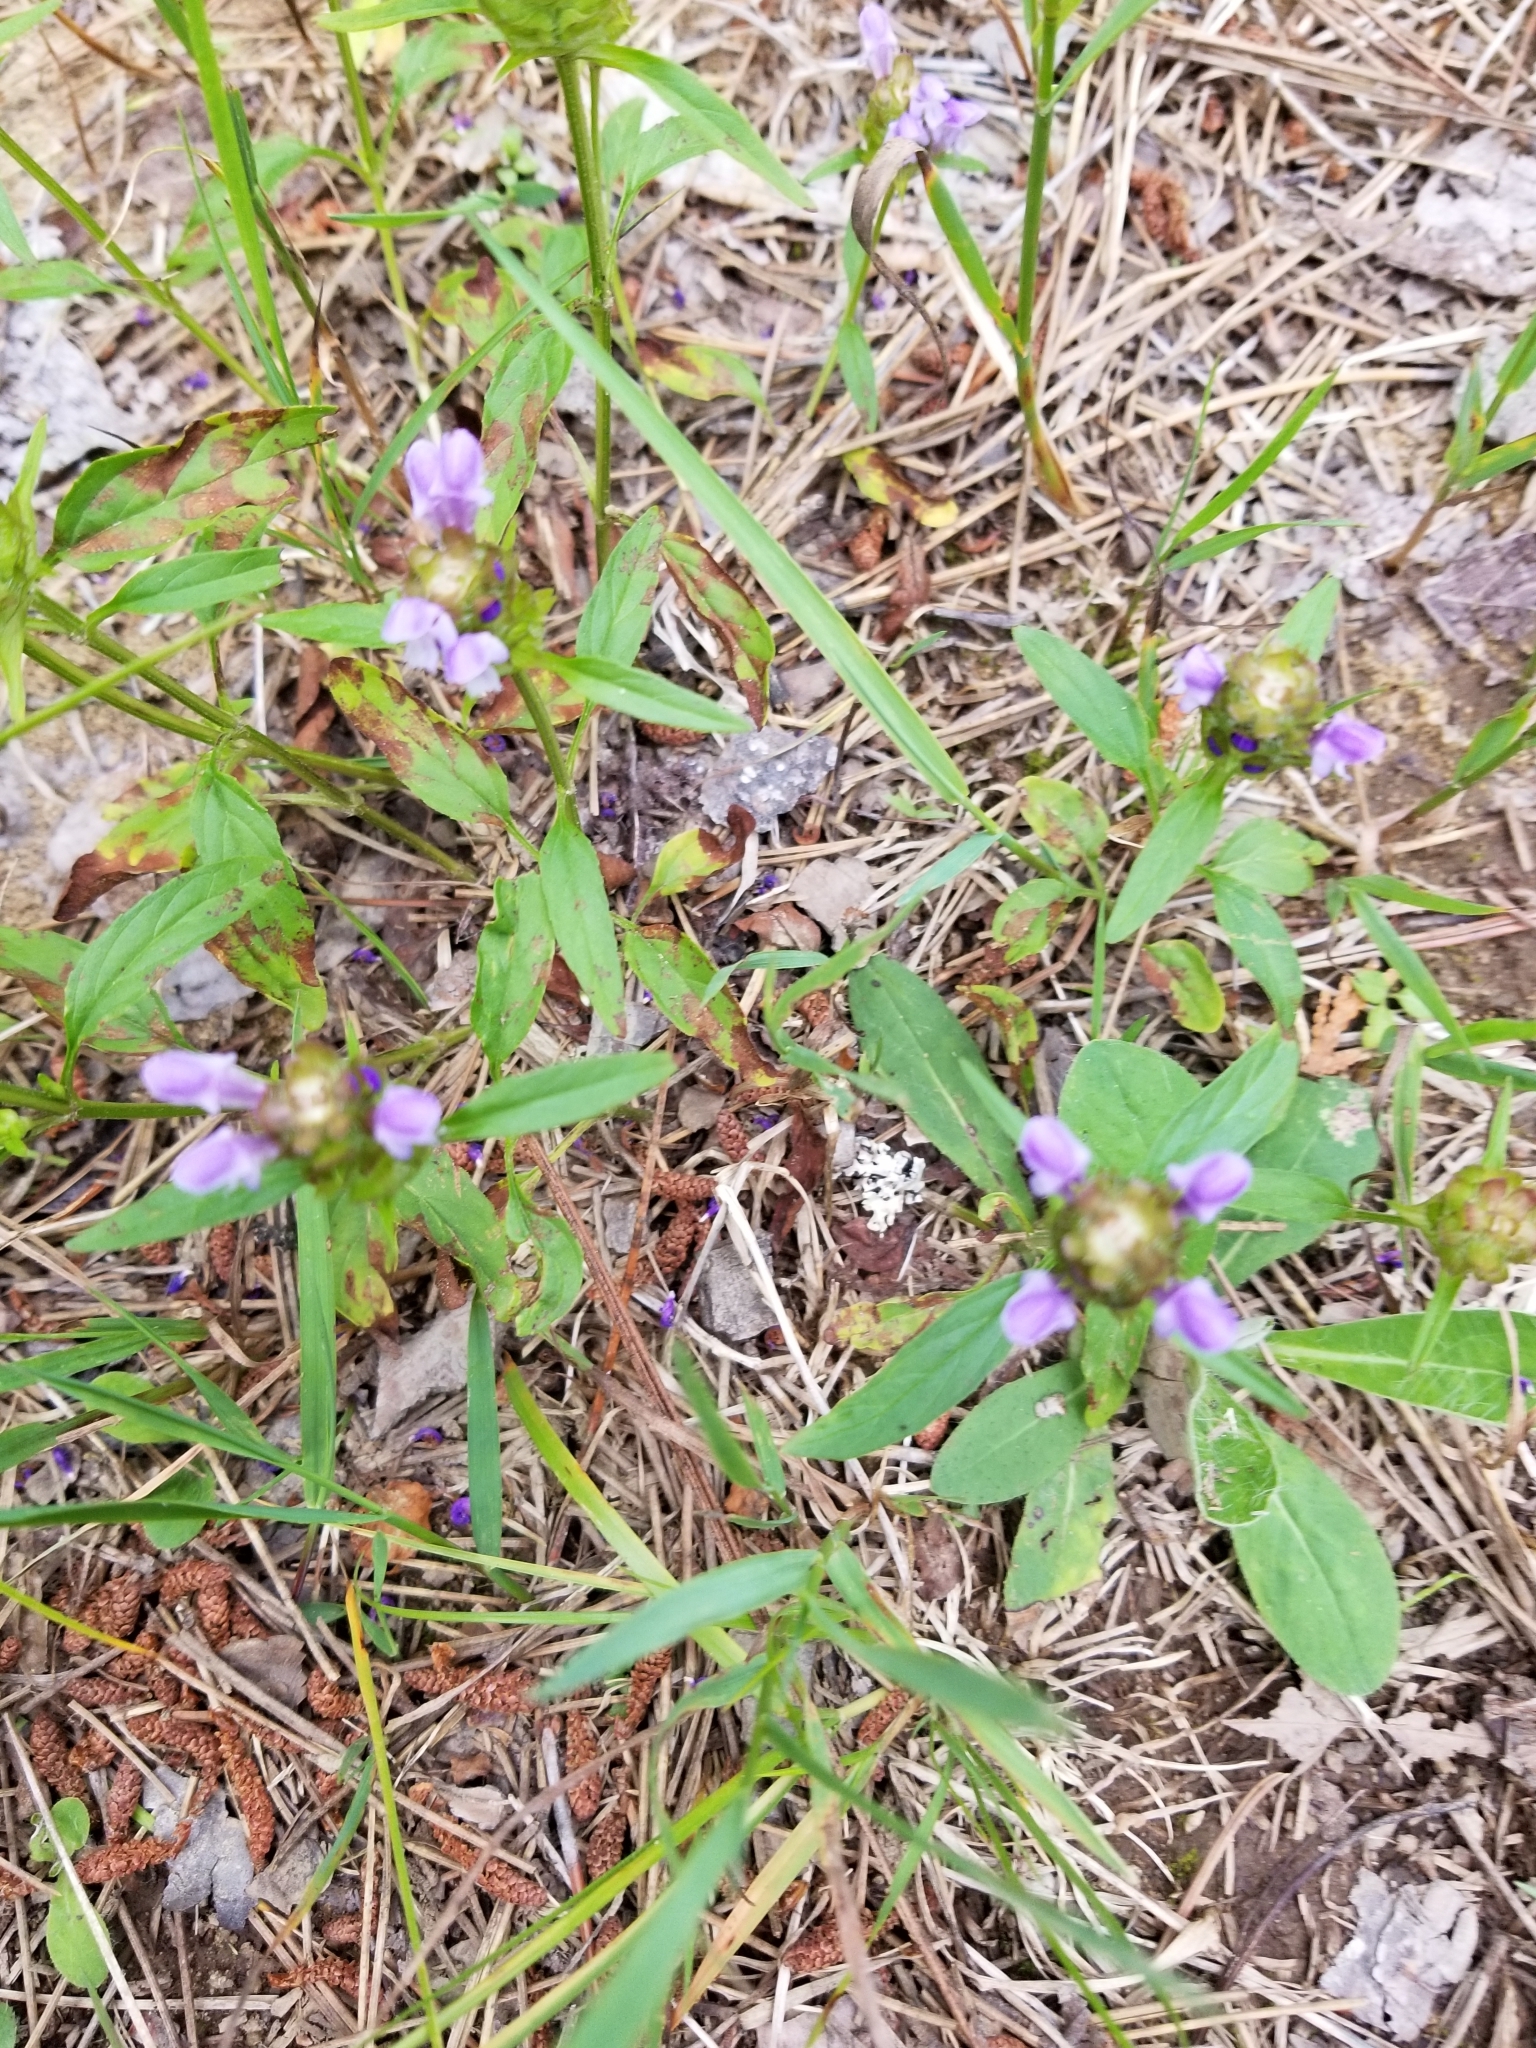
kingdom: Plantae
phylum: Tracheophyta
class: Magnoliopsida
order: Lamiales
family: Lamiaceae
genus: Prunella
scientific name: Prunella vulgaris
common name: Heal-all
